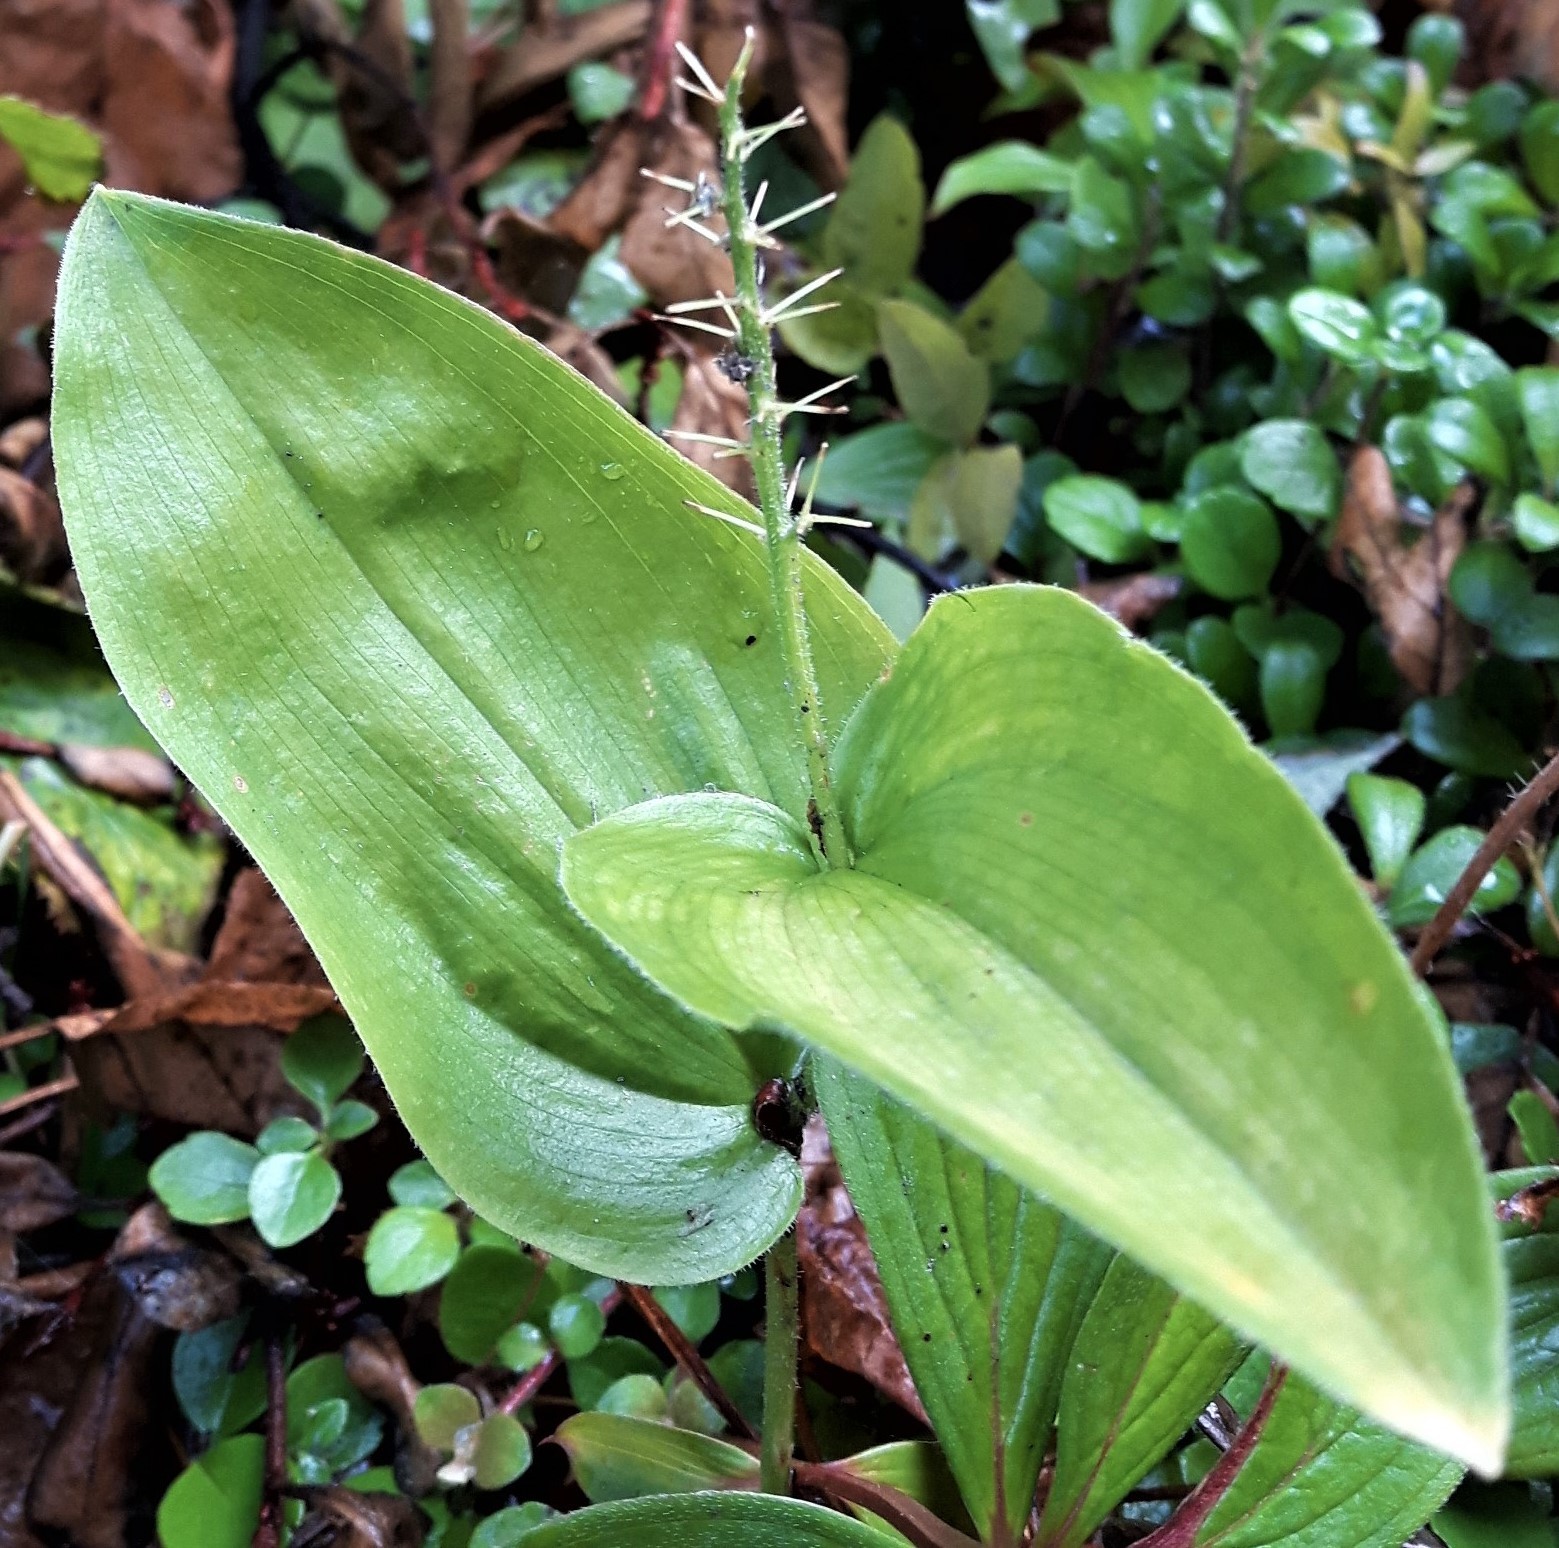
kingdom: Plantae
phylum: Tracheophyta
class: Liliopsida
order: Asparagales
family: Asparagaceae
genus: Maianthemum
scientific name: Maianthemum canadense
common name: False lily-of-the-valley
